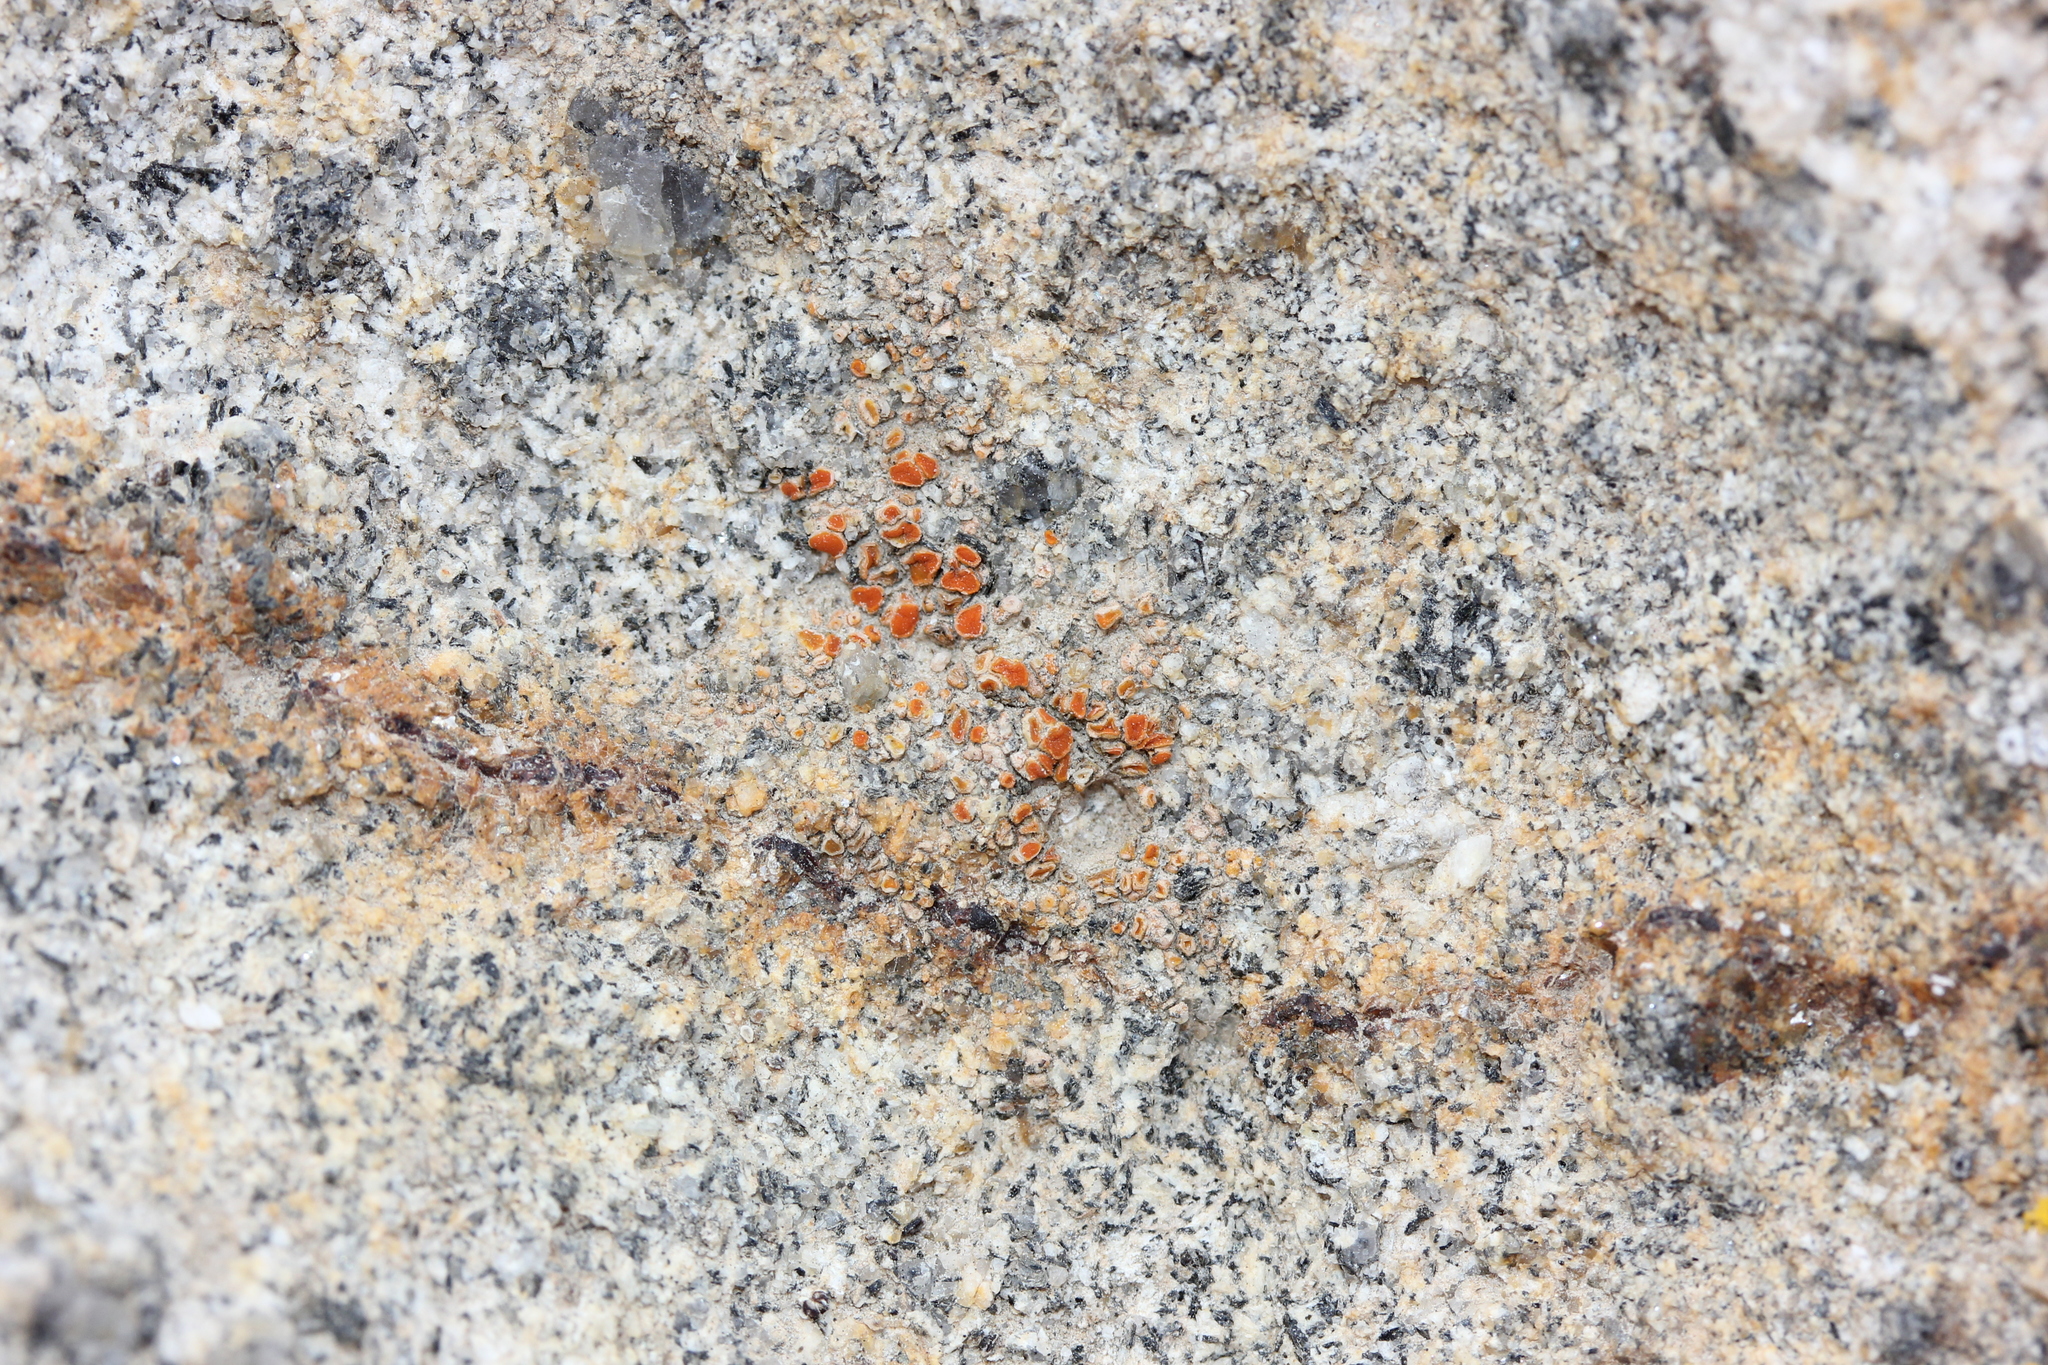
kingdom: Fungi
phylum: Ascomycota
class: Lecanoromycetes
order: Teloschistales
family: Teloschistaceae
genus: Tomnashia
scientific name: Tomnashia ludificans
